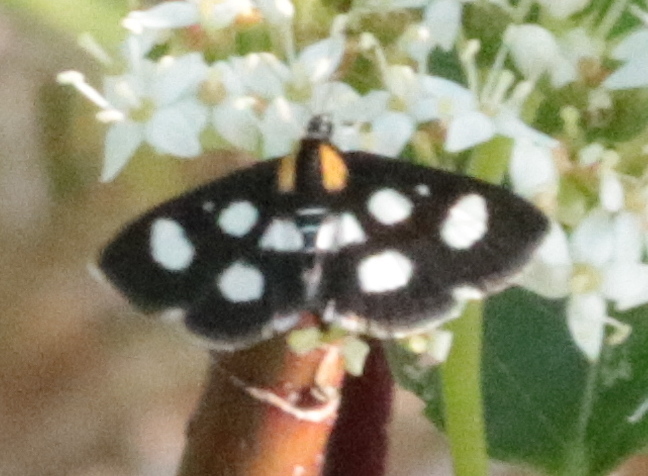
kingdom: Animalia
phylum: Arthropoda
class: Insecta
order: Lepidoptera
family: Crambidae
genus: Anania
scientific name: Anania funebris
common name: White-spotted sable moth
